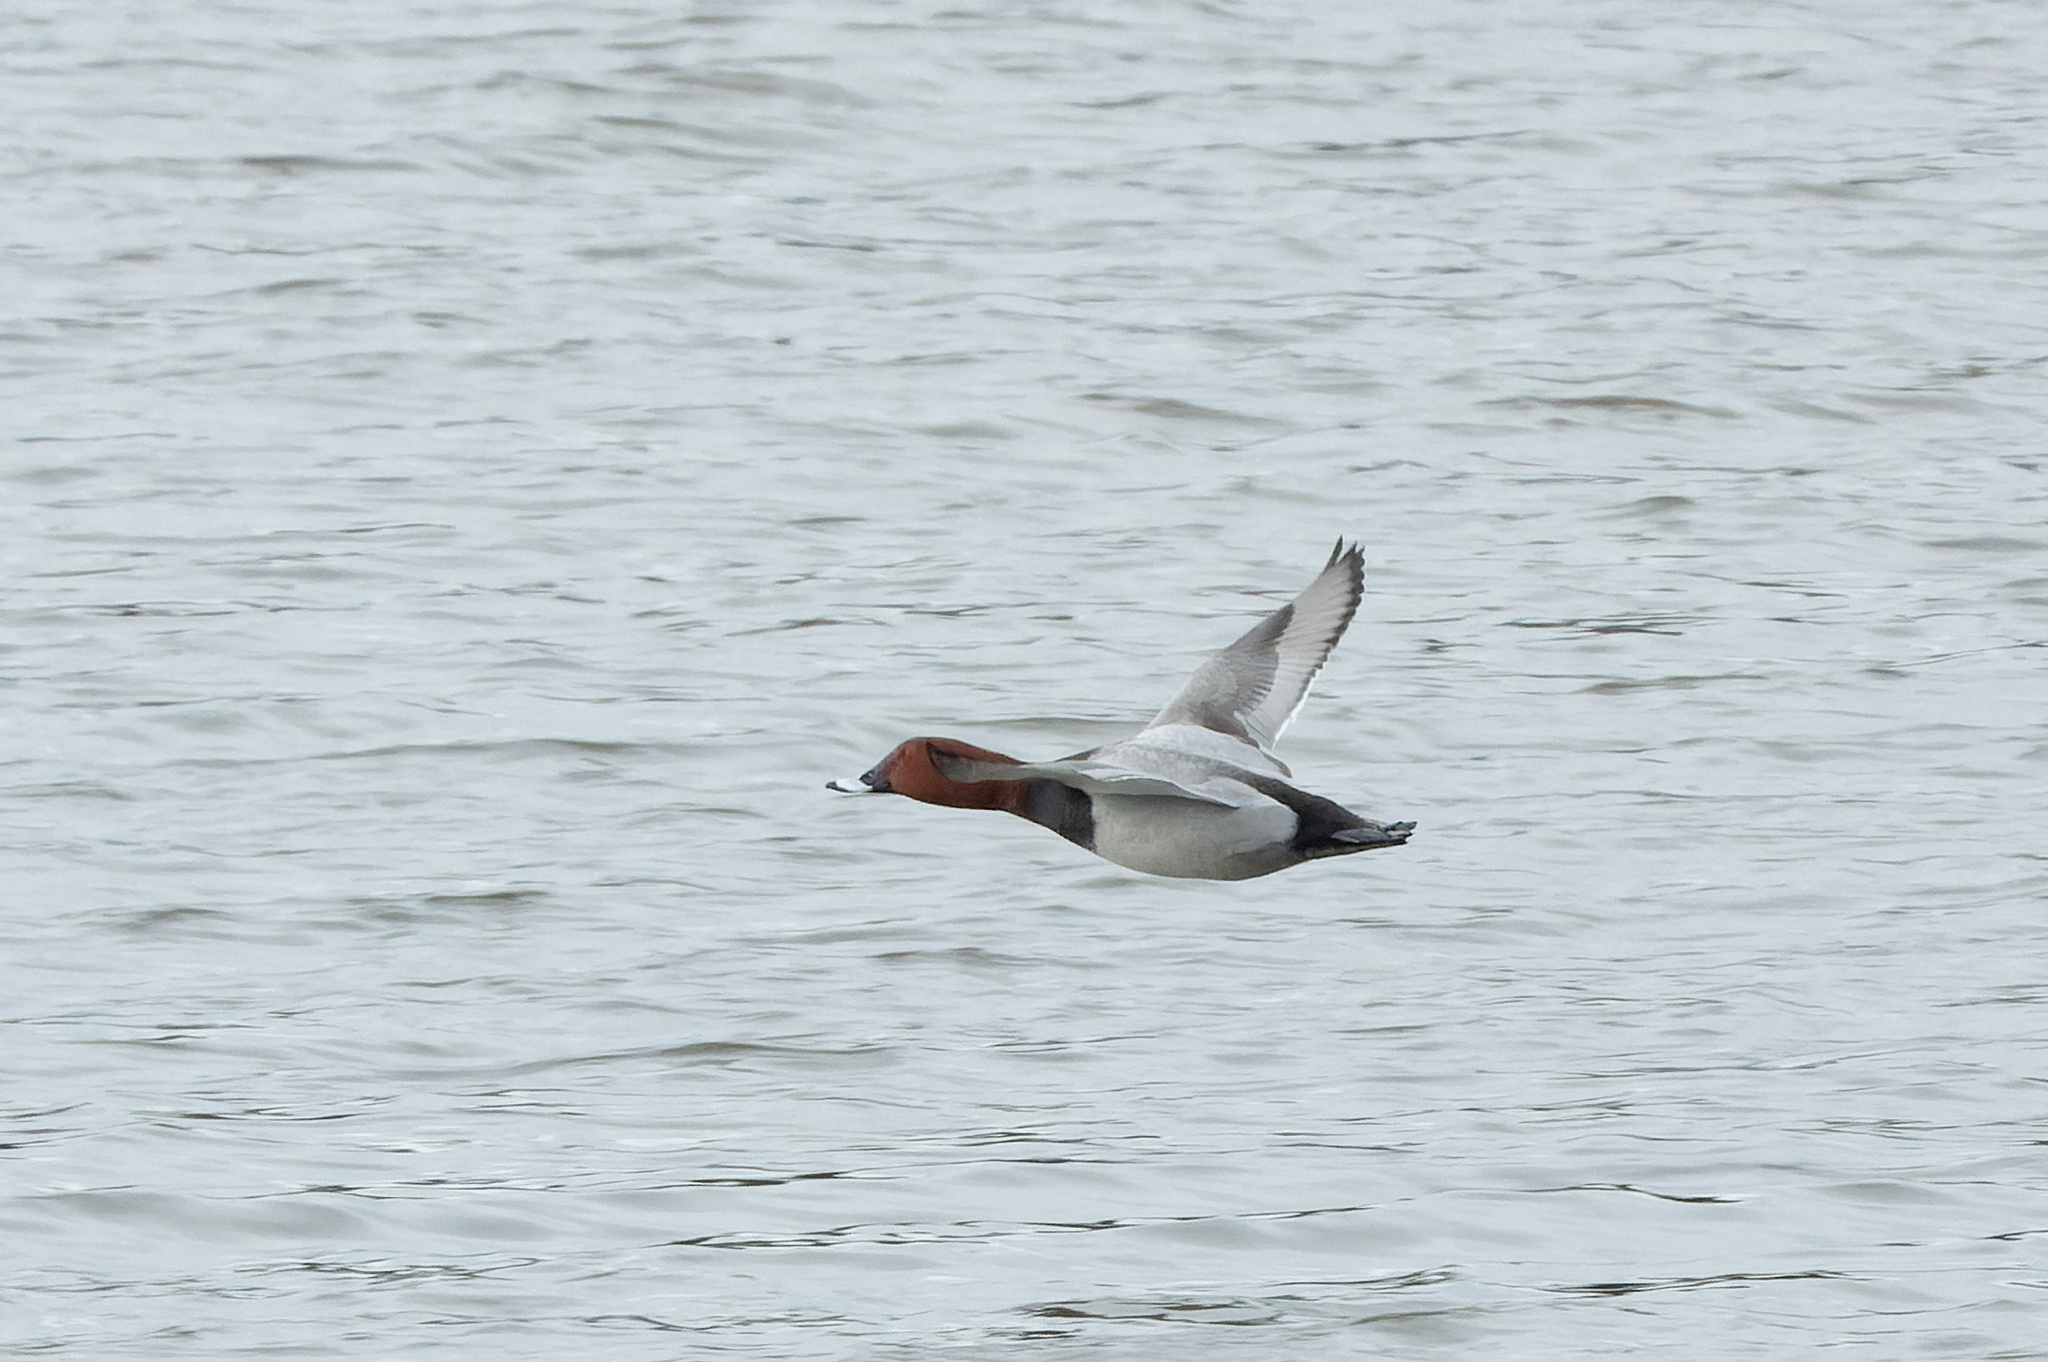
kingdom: Animalia
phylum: Chordata
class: Aves
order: Anseriformes
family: Anatidae
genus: Aythya
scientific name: Aythya ferina
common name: Common pochard
